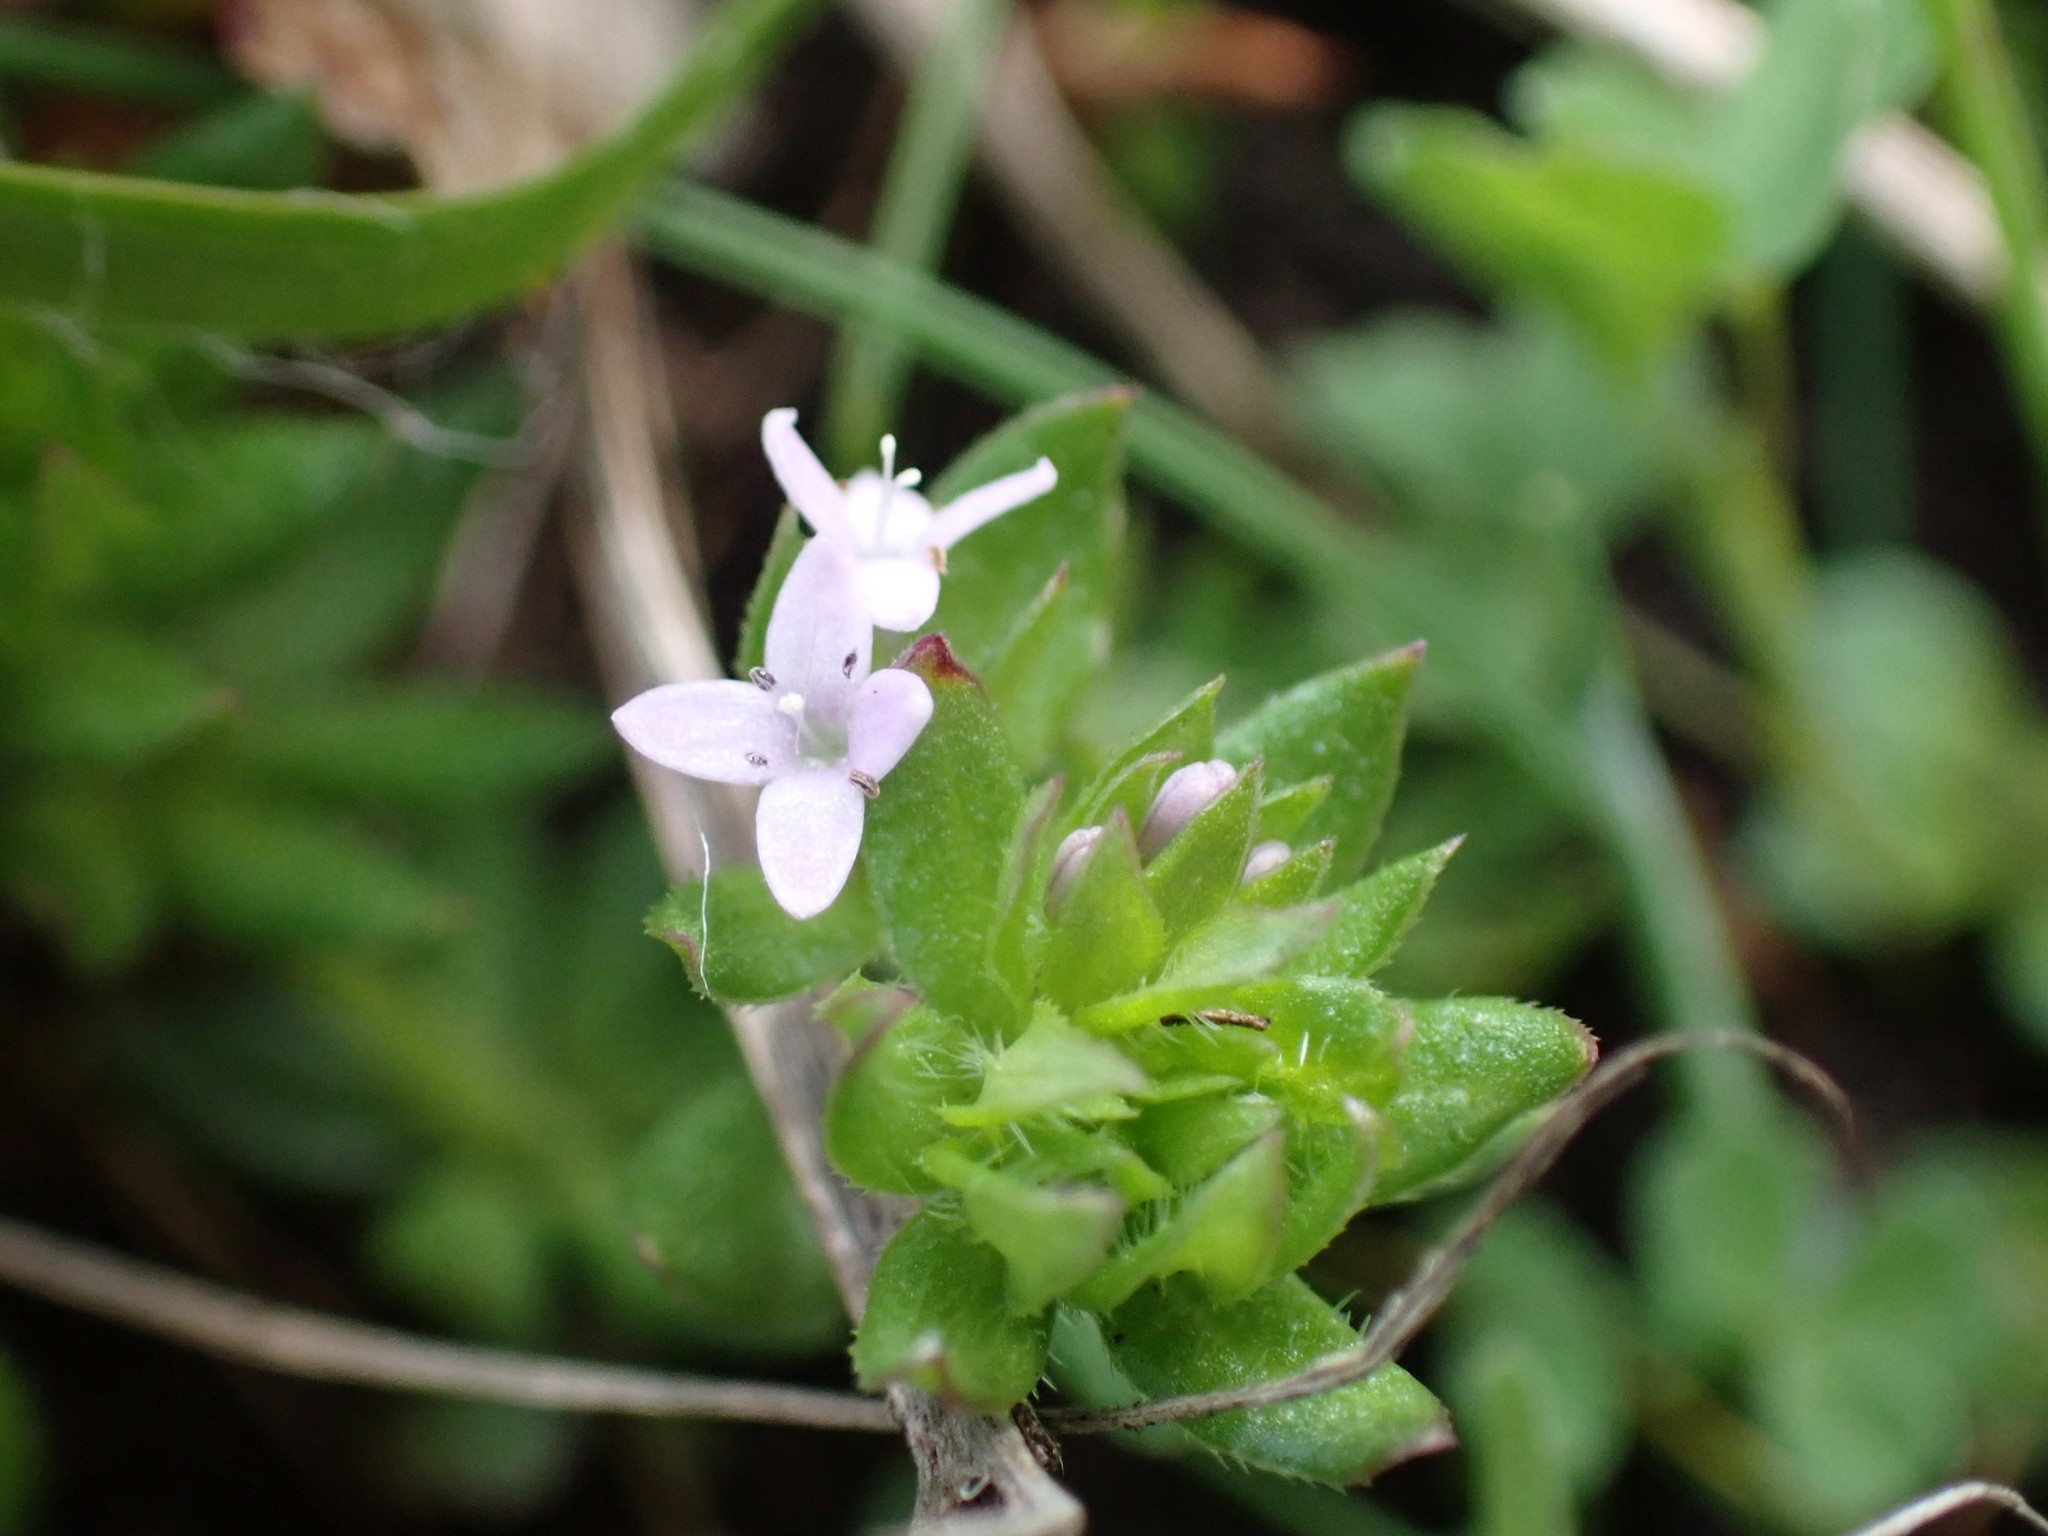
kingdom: Plantae
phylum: Tracheophyta
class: Magnoliopsida
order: Gentianales
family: Rubiaceae
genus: Sherardia
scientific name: Sherardia arvensis
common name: Field madder
